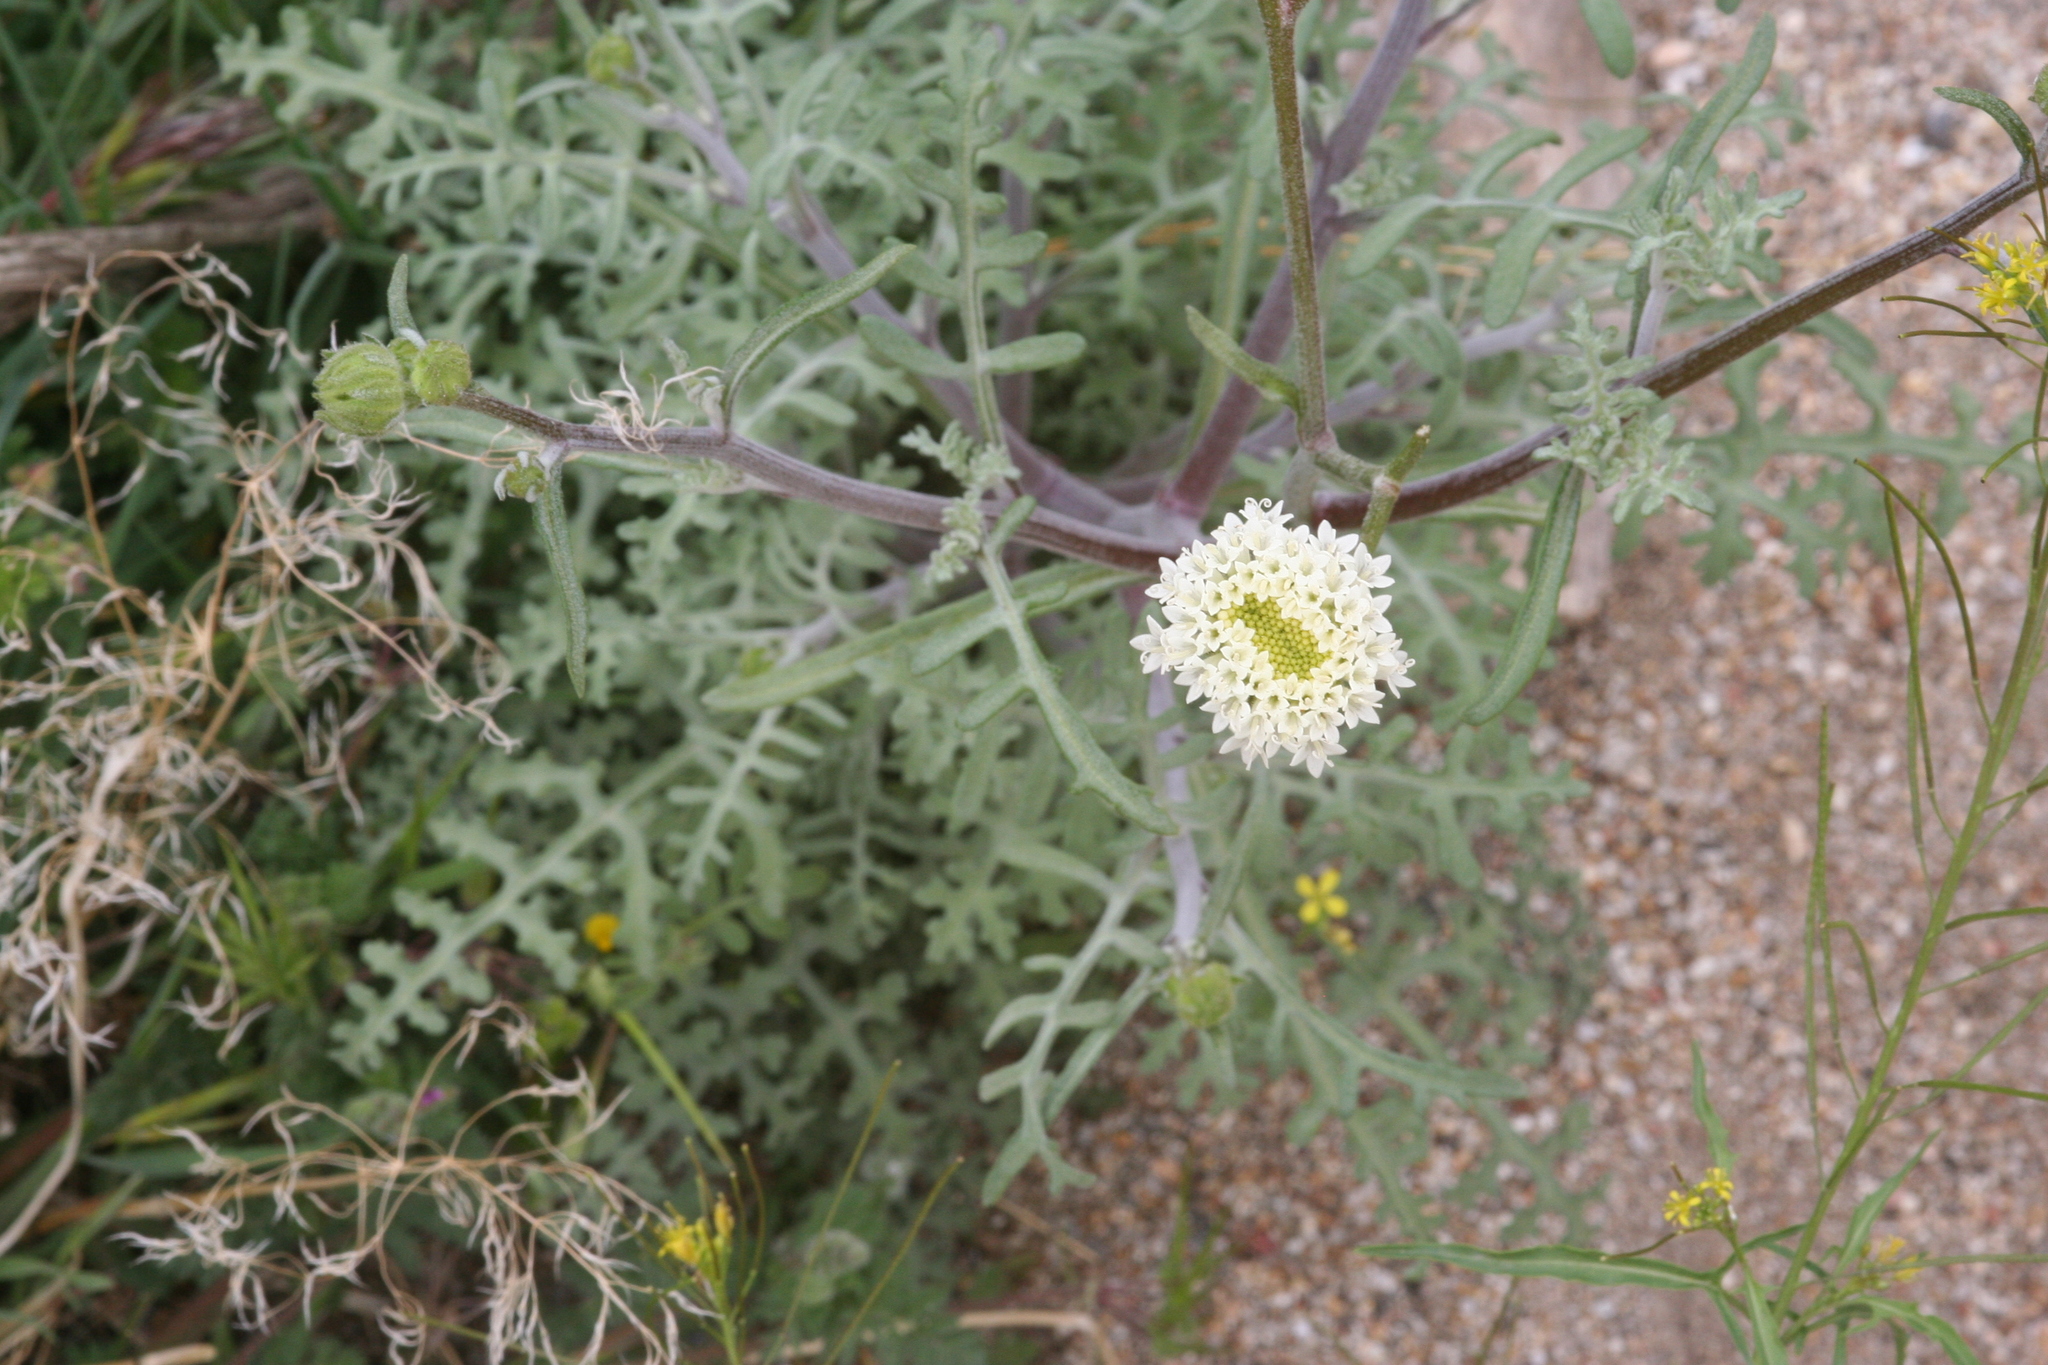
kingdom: Plantae
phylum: Tracheophyta
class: Magnoliopsida
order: Asterales
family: Asteraceae
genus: Chaenactis
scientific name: Chaenactis stevioides
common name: Desert pincushion
